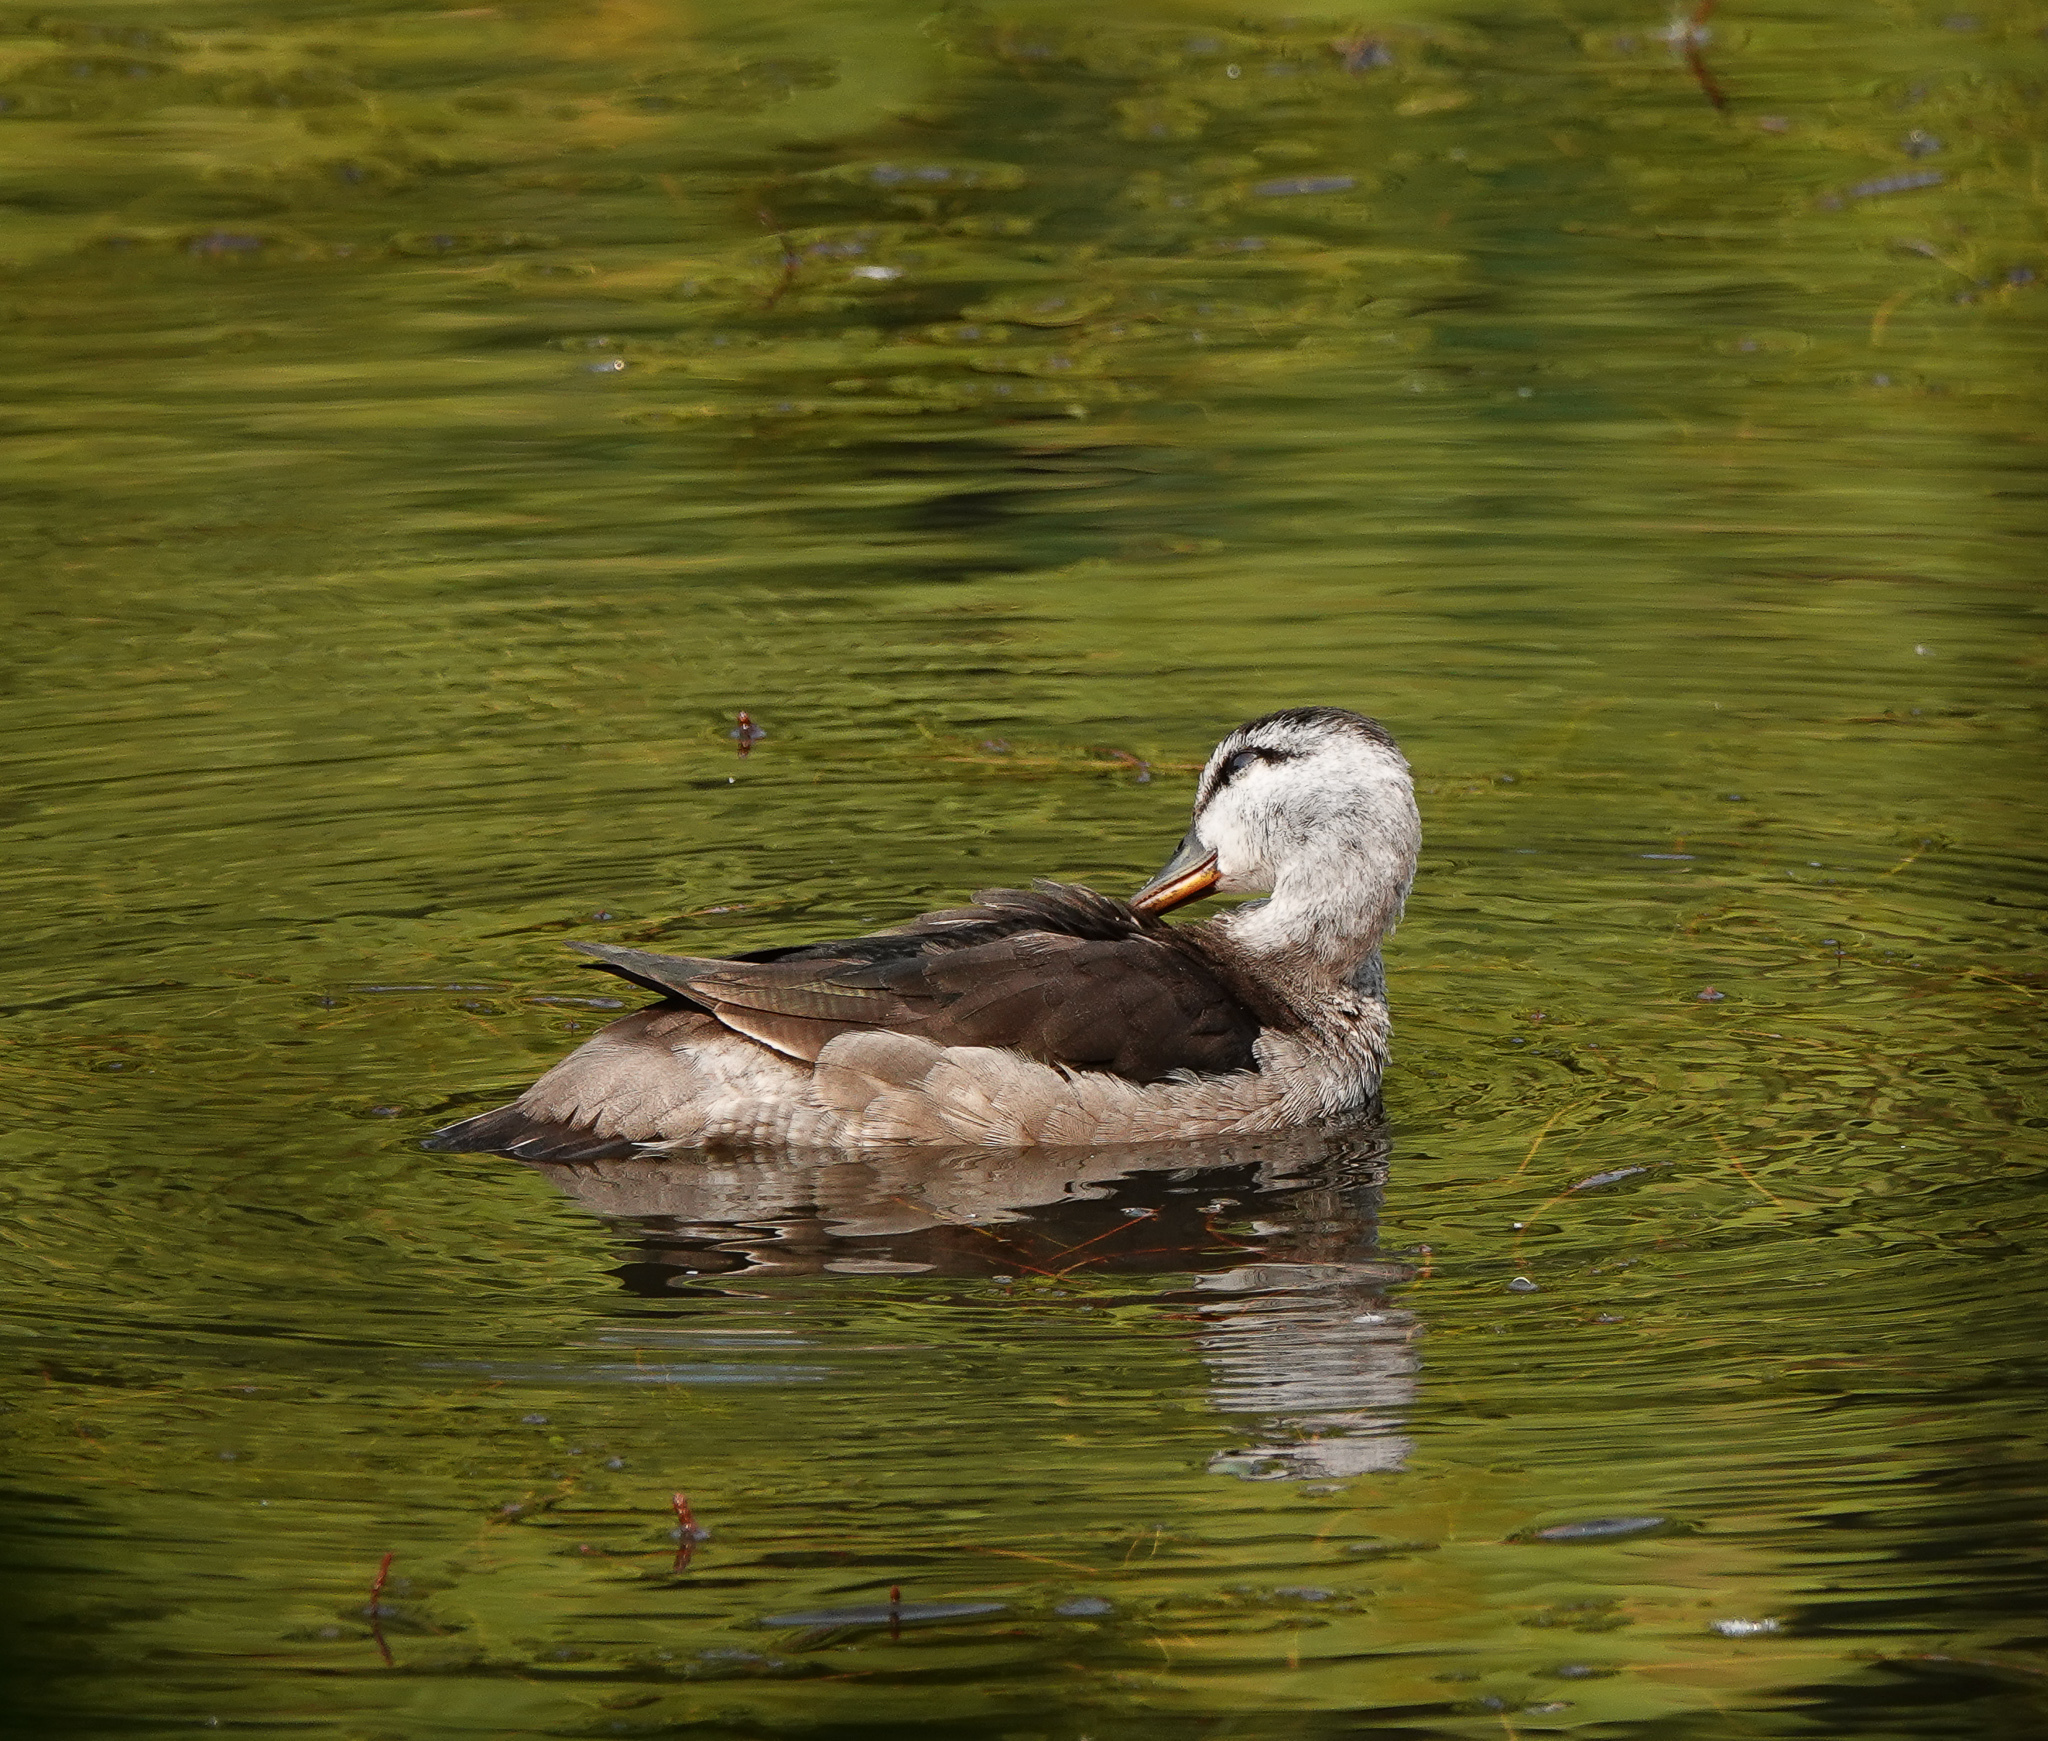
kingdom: Animalia
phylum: Chordata
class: Aves
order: Anseriformes
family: Anatidae
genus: Nettapus
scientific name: Nettapus coromandelianus
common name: Cotton pygmy-goose
